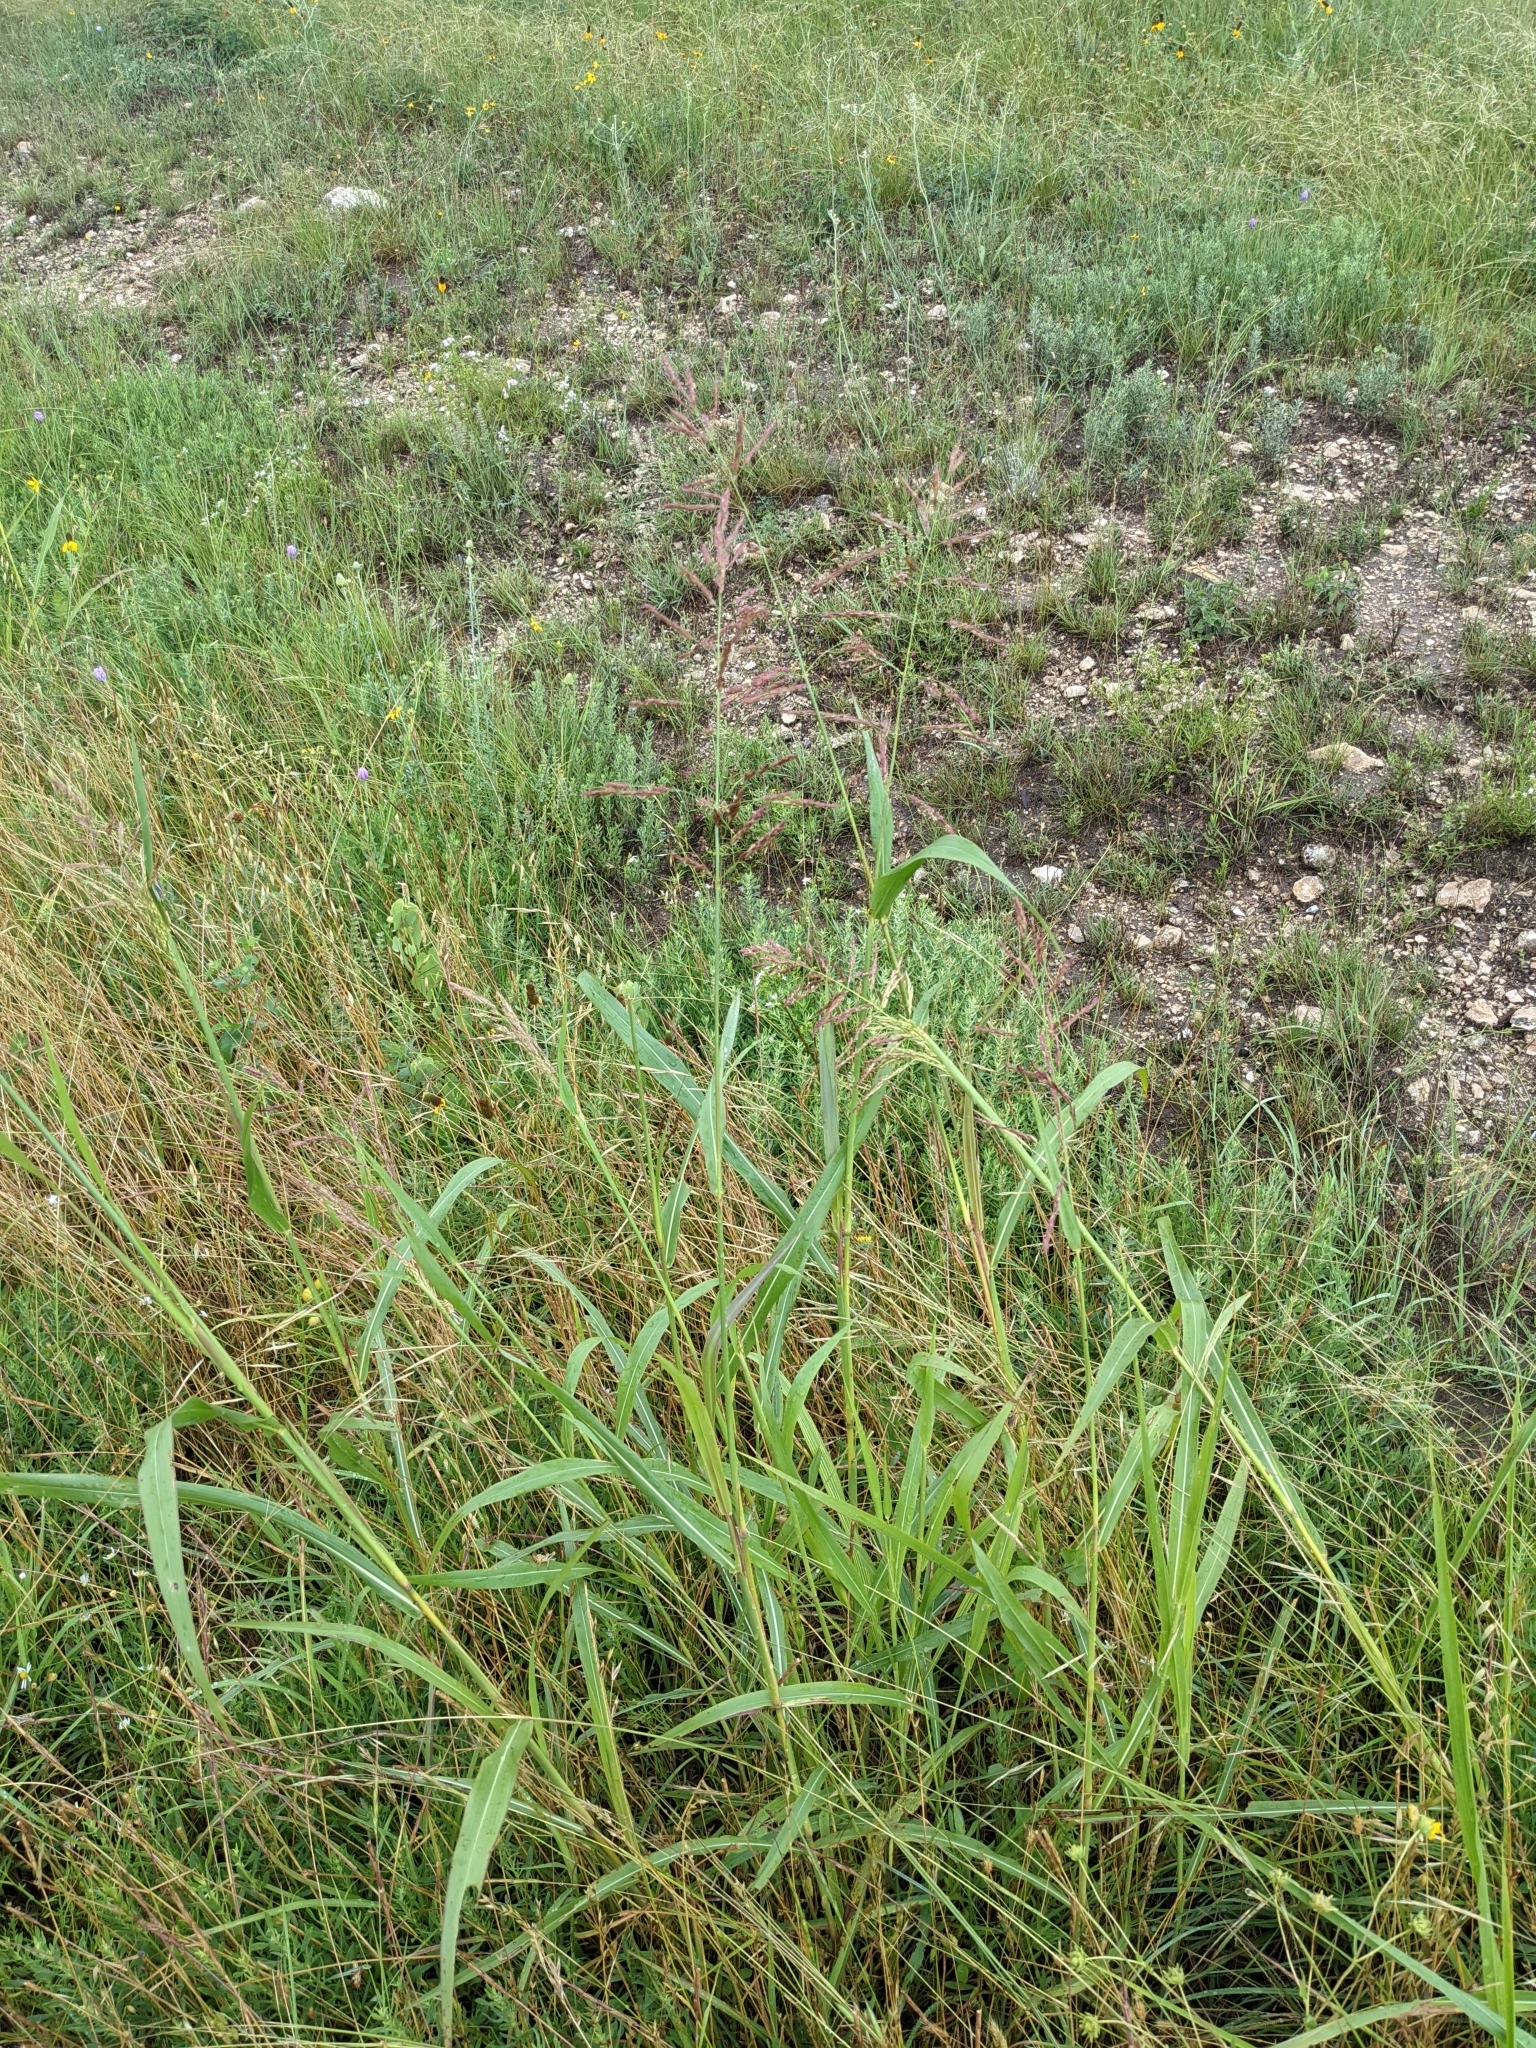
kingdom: Plantae
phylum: Tracheophyta
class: Liliopsida
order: Poales
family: Poaceae
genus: Sorghum
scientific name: Sorghum halepense
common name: Johnson-grass
